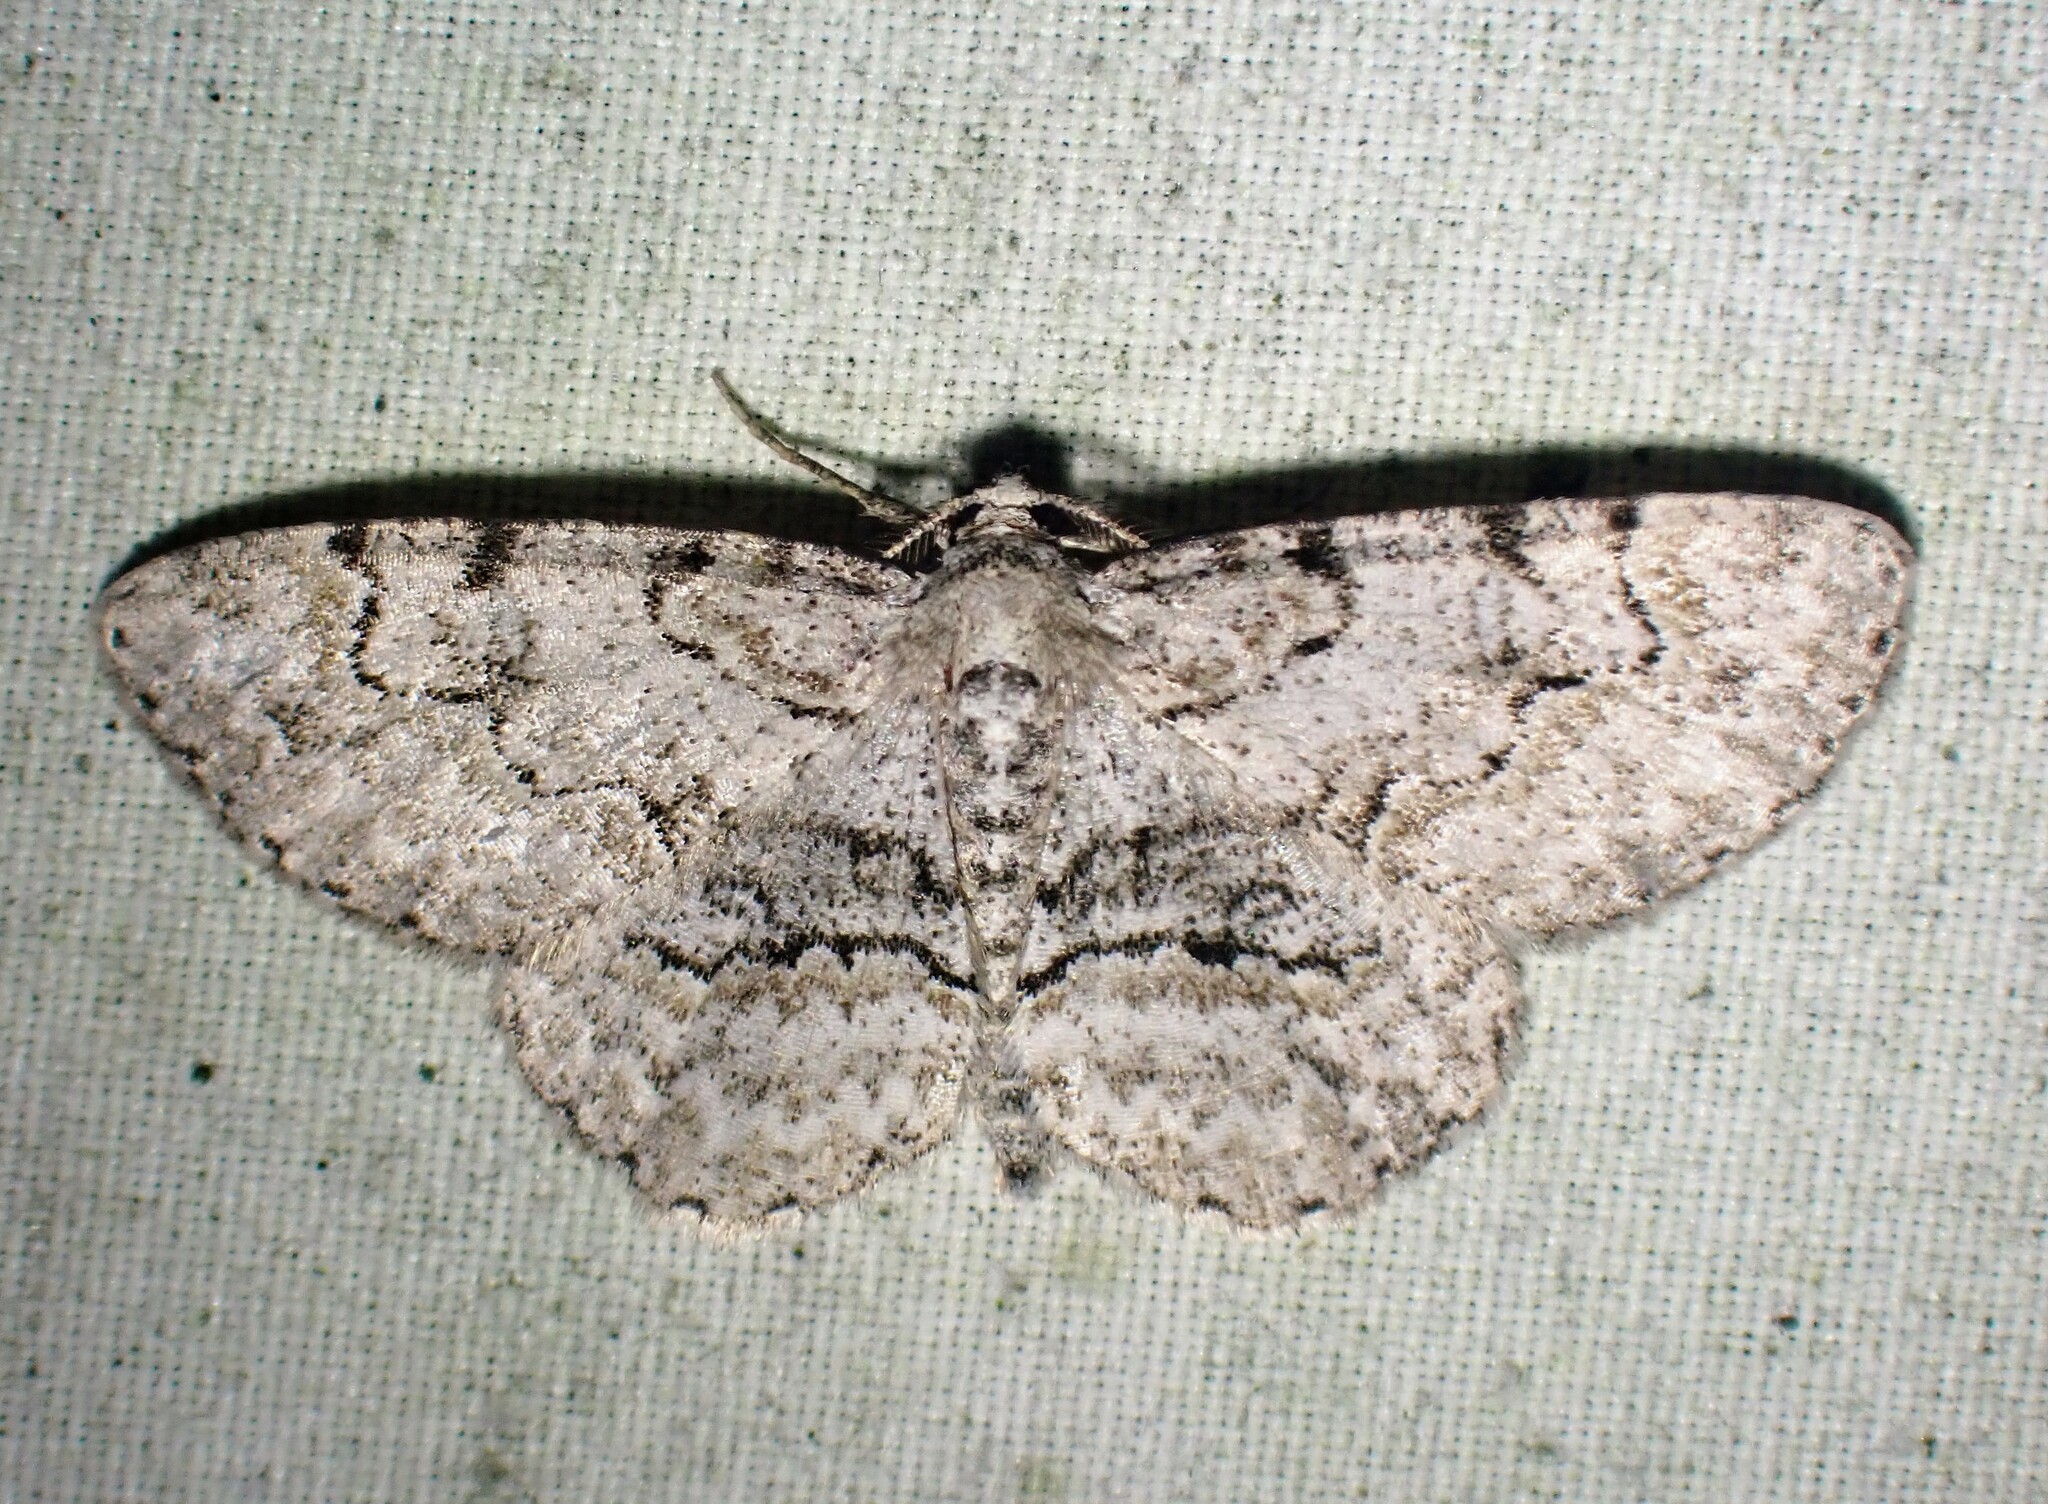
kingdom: Animalia
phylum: Arthropoda
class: Insecta
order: Lepidoptera
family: Geometridae
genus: Iridopsis
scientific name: Iridopsis ephyraria
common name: Pale-winged gray
